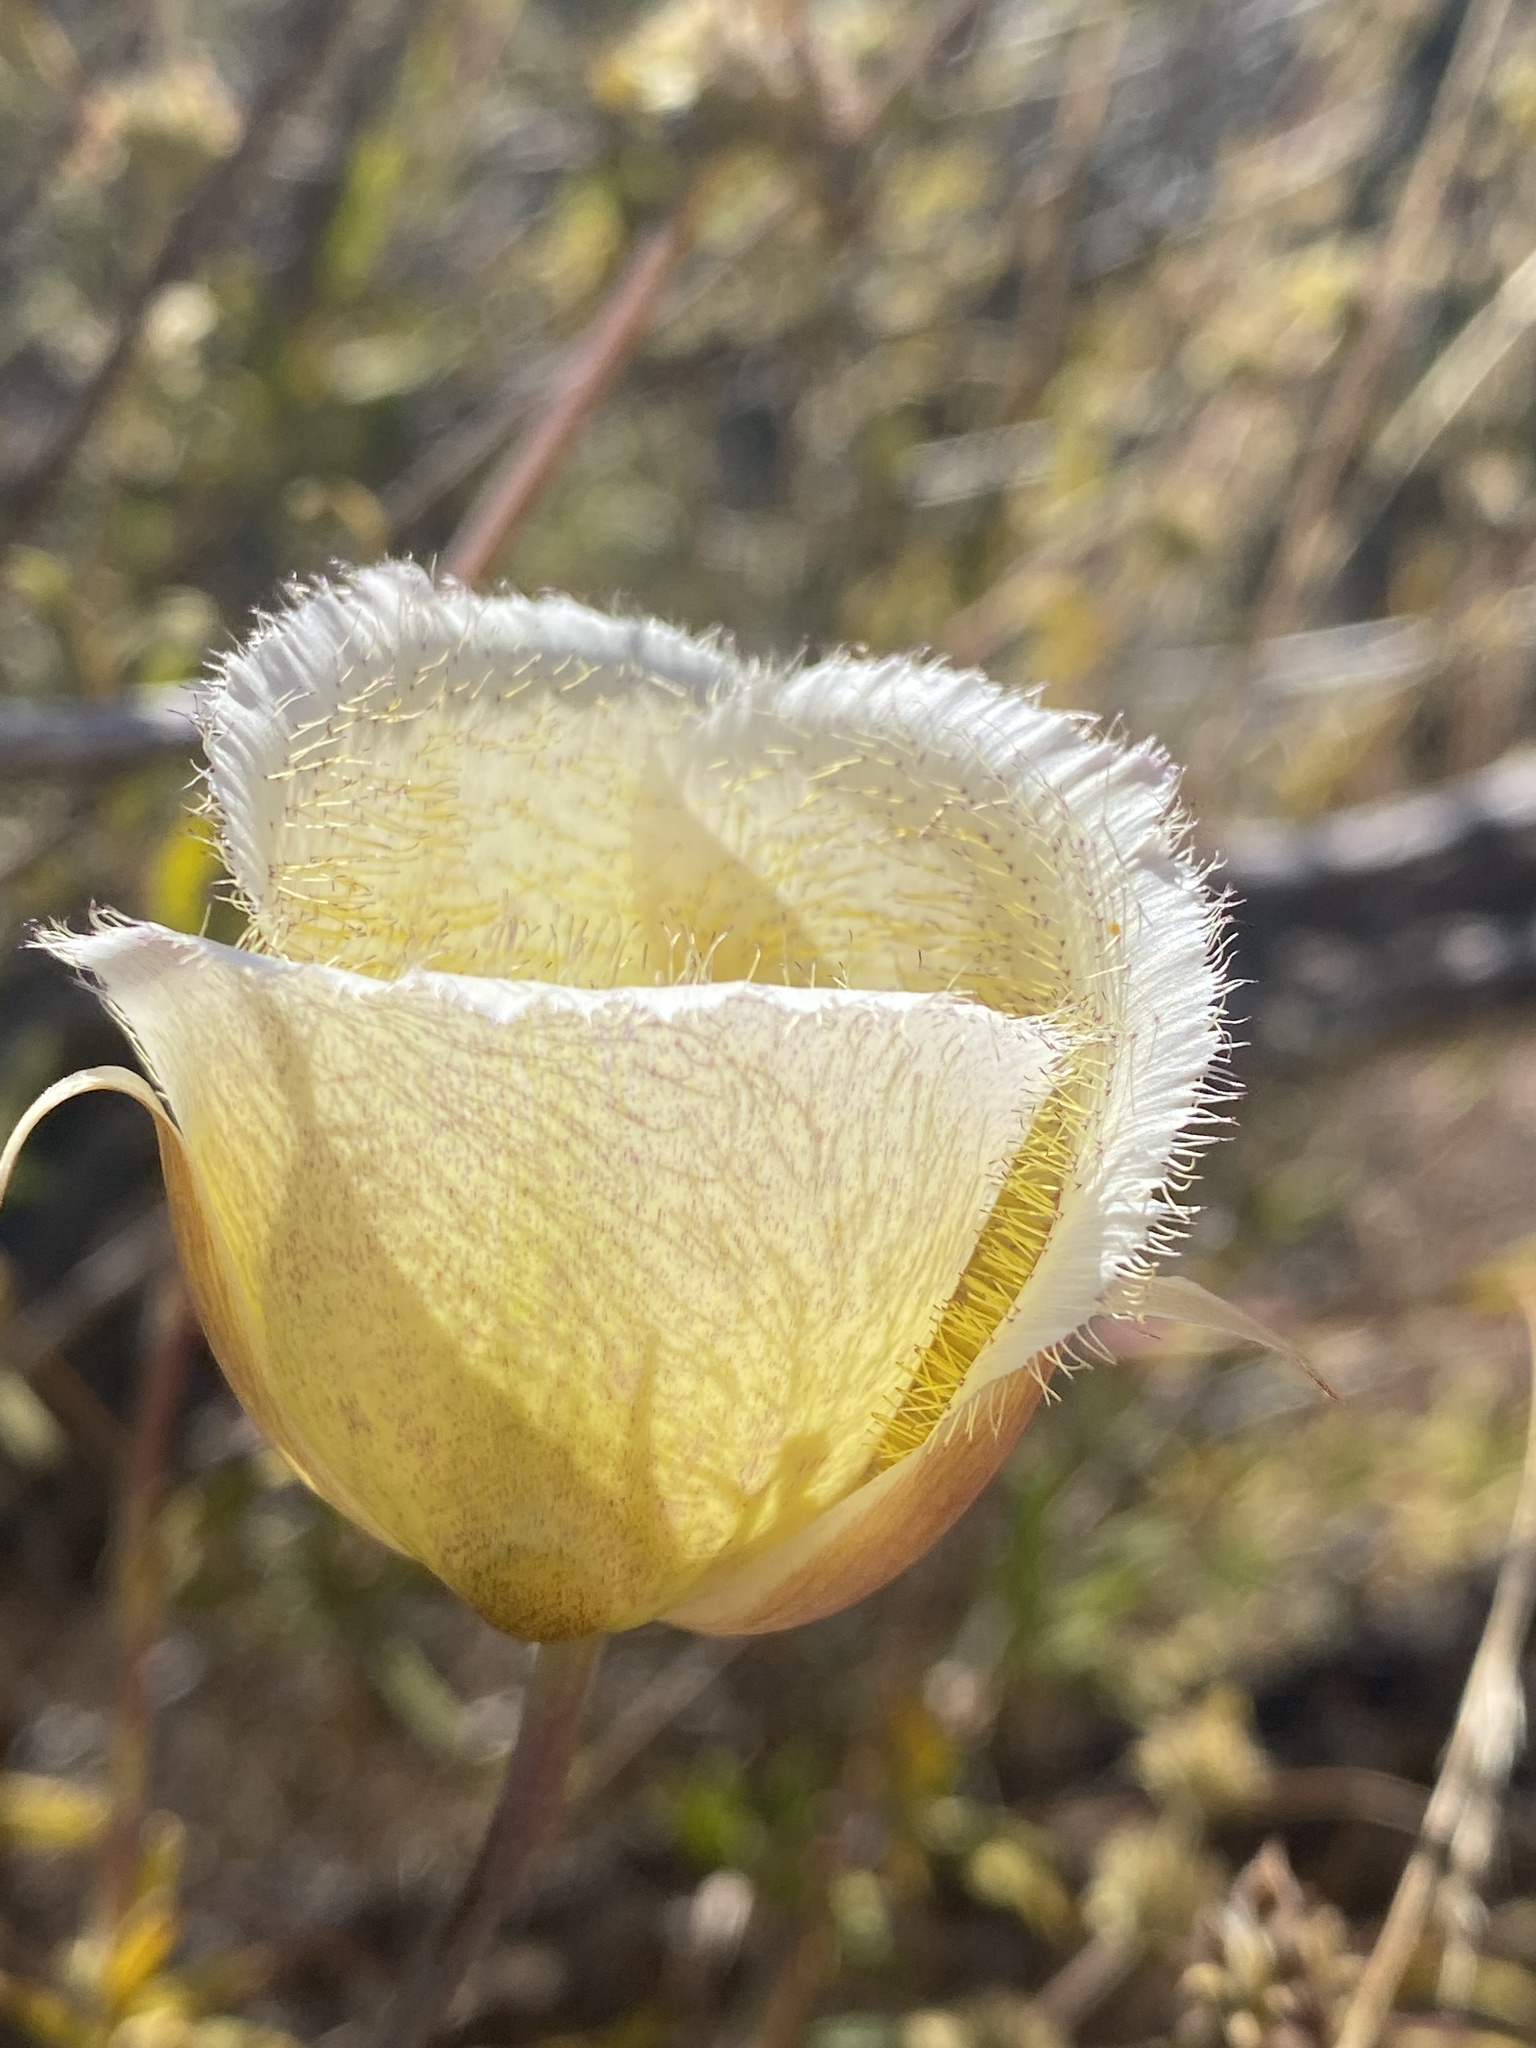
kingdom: Plantae
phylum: Tracheophyta
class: Liliopsida
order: Liliales
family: Liliaceae
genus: Calochortus
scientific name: Calochortus weedii
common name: Weed's mariposa-lily
